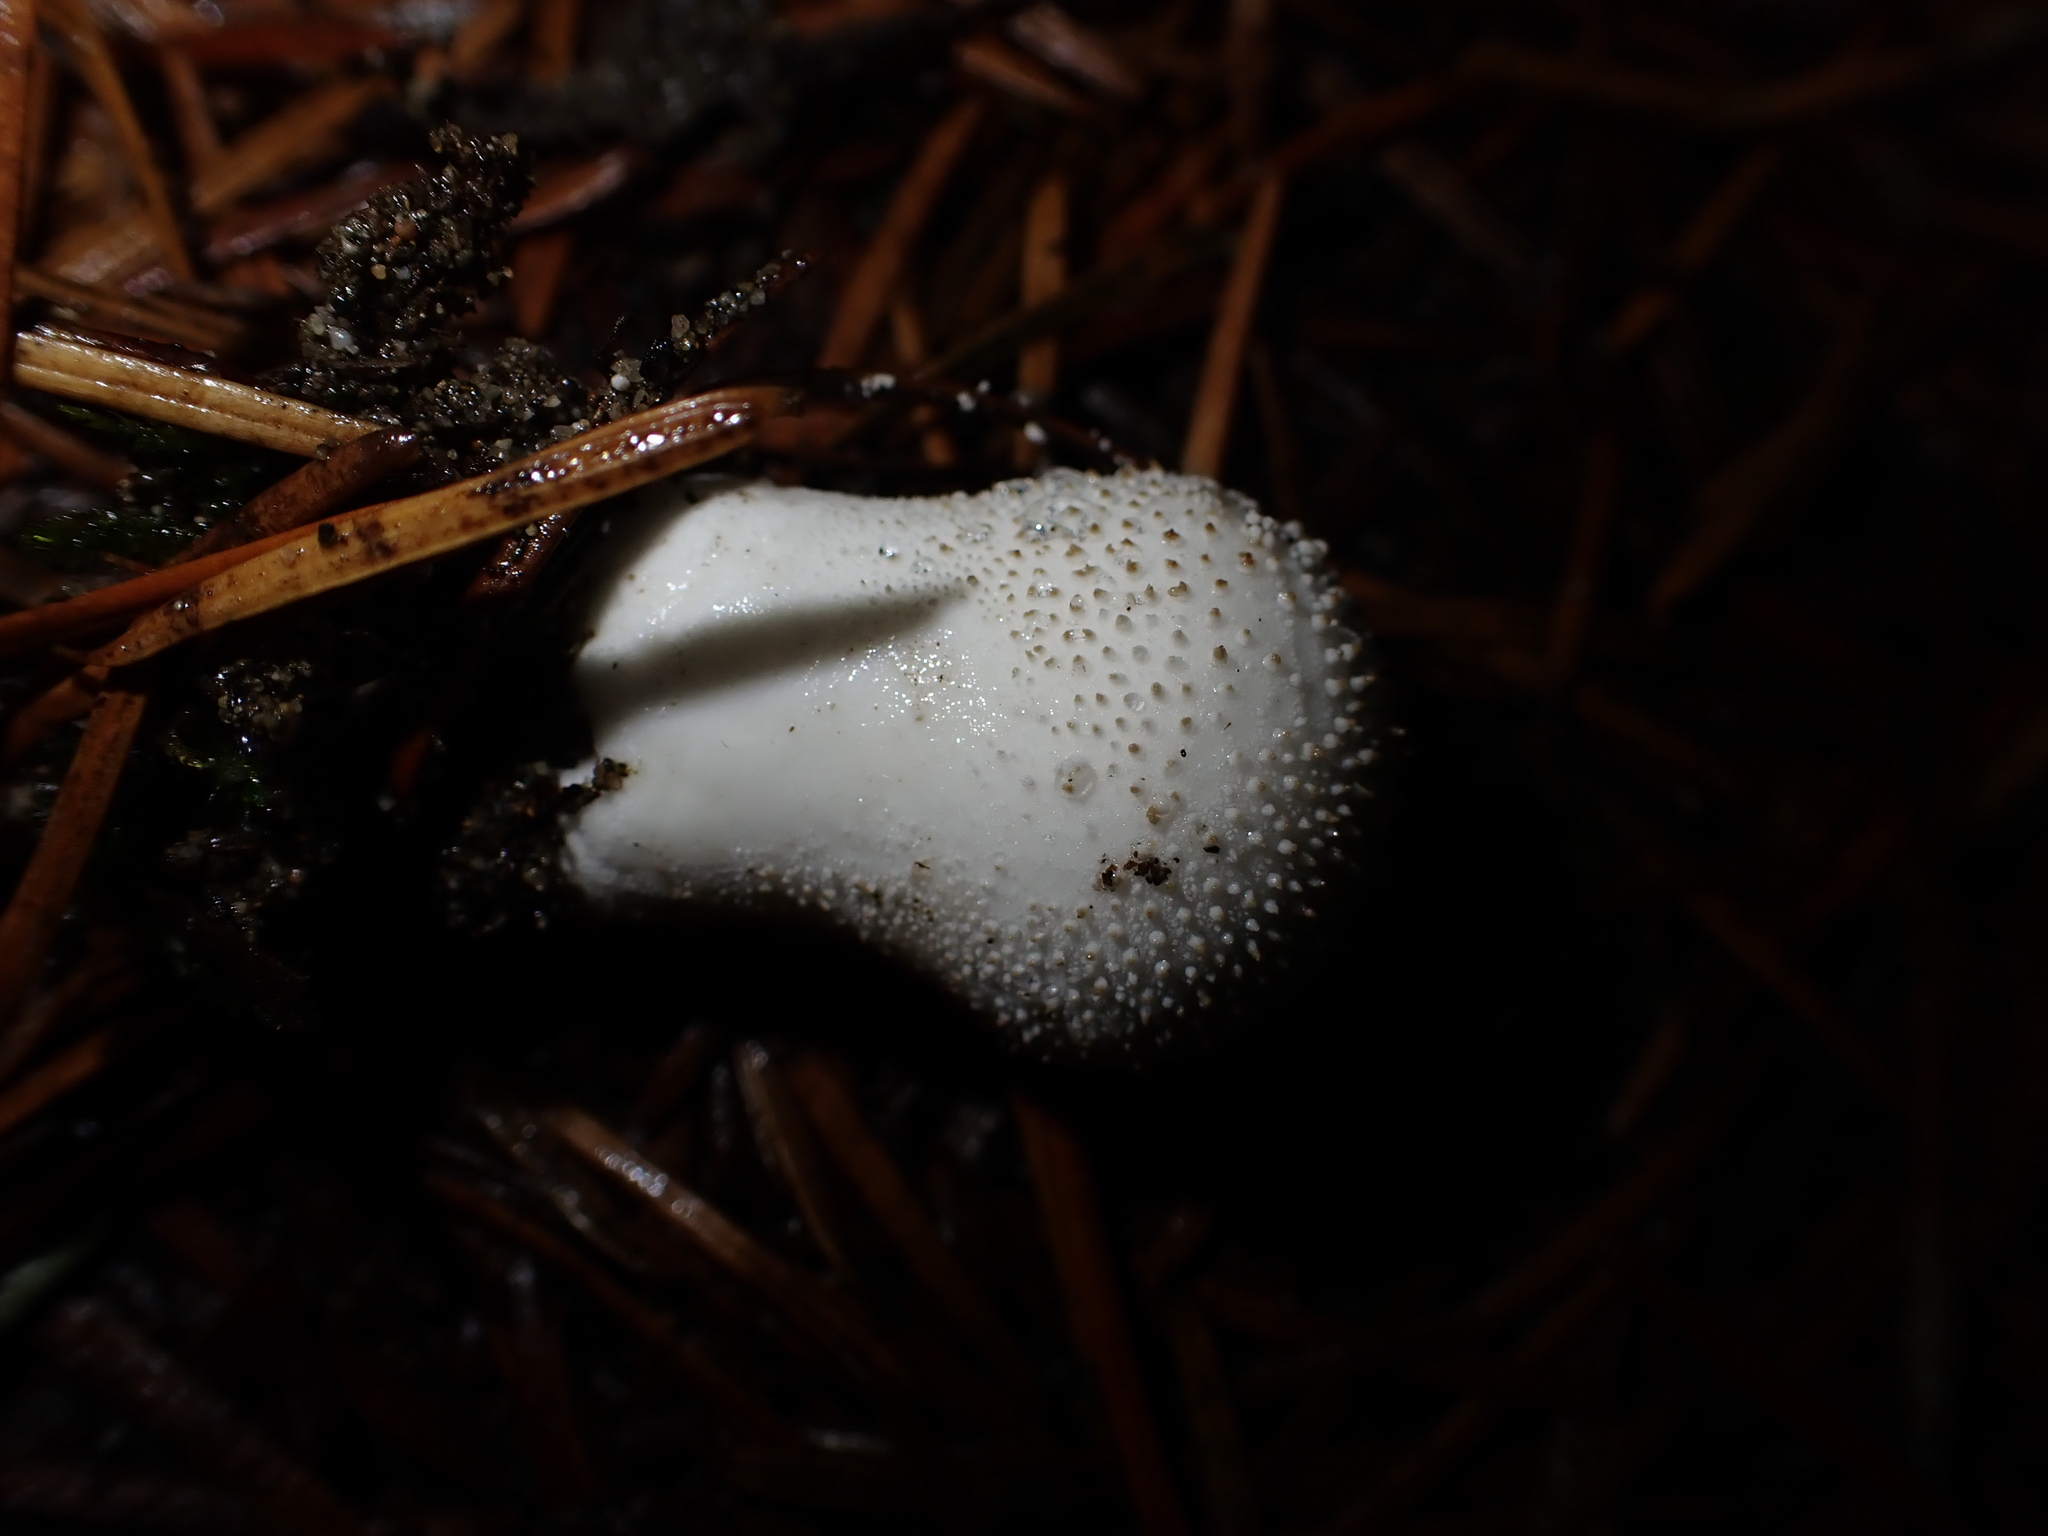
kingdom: Fungi
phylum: Basidiomycota
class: Agaricomycetes
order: Agaricales
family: Lycoperdaceae
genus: Lycoperdon
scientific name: Lycoperdon perlatum
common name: Common puffball
